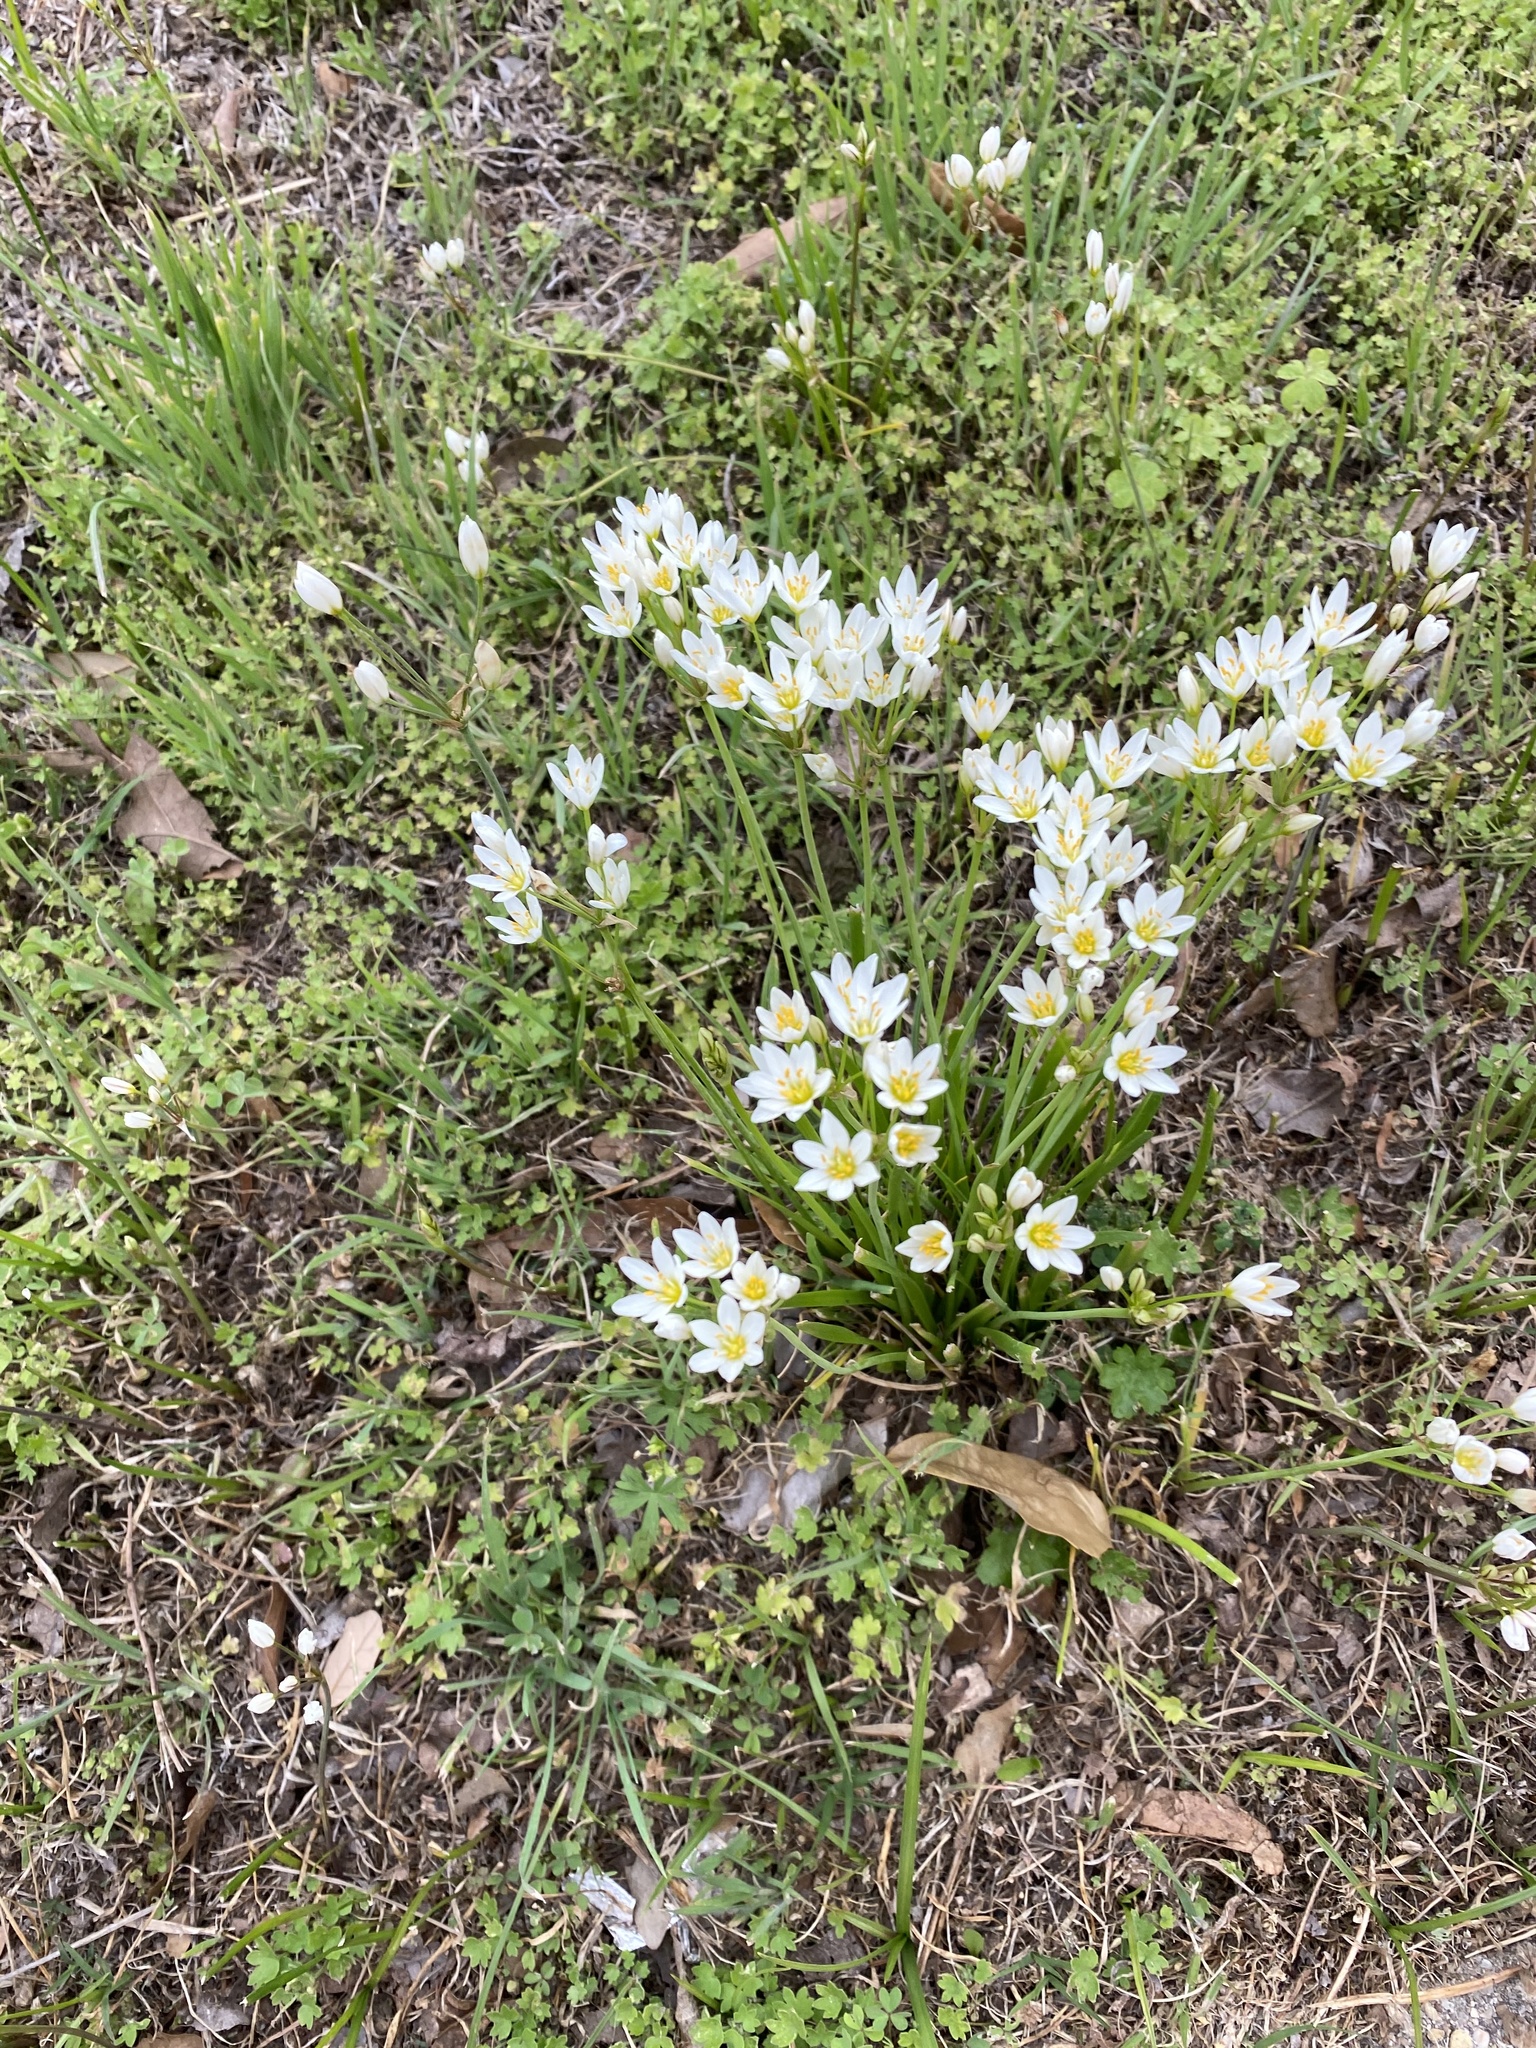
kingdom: Plantae
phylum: Tracheophyta
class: Liliopsida
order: Asparagales
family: Amaryllidaceae
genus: Nothoscordum
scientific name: Nothoscordum bivalve
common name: Crow-poison
